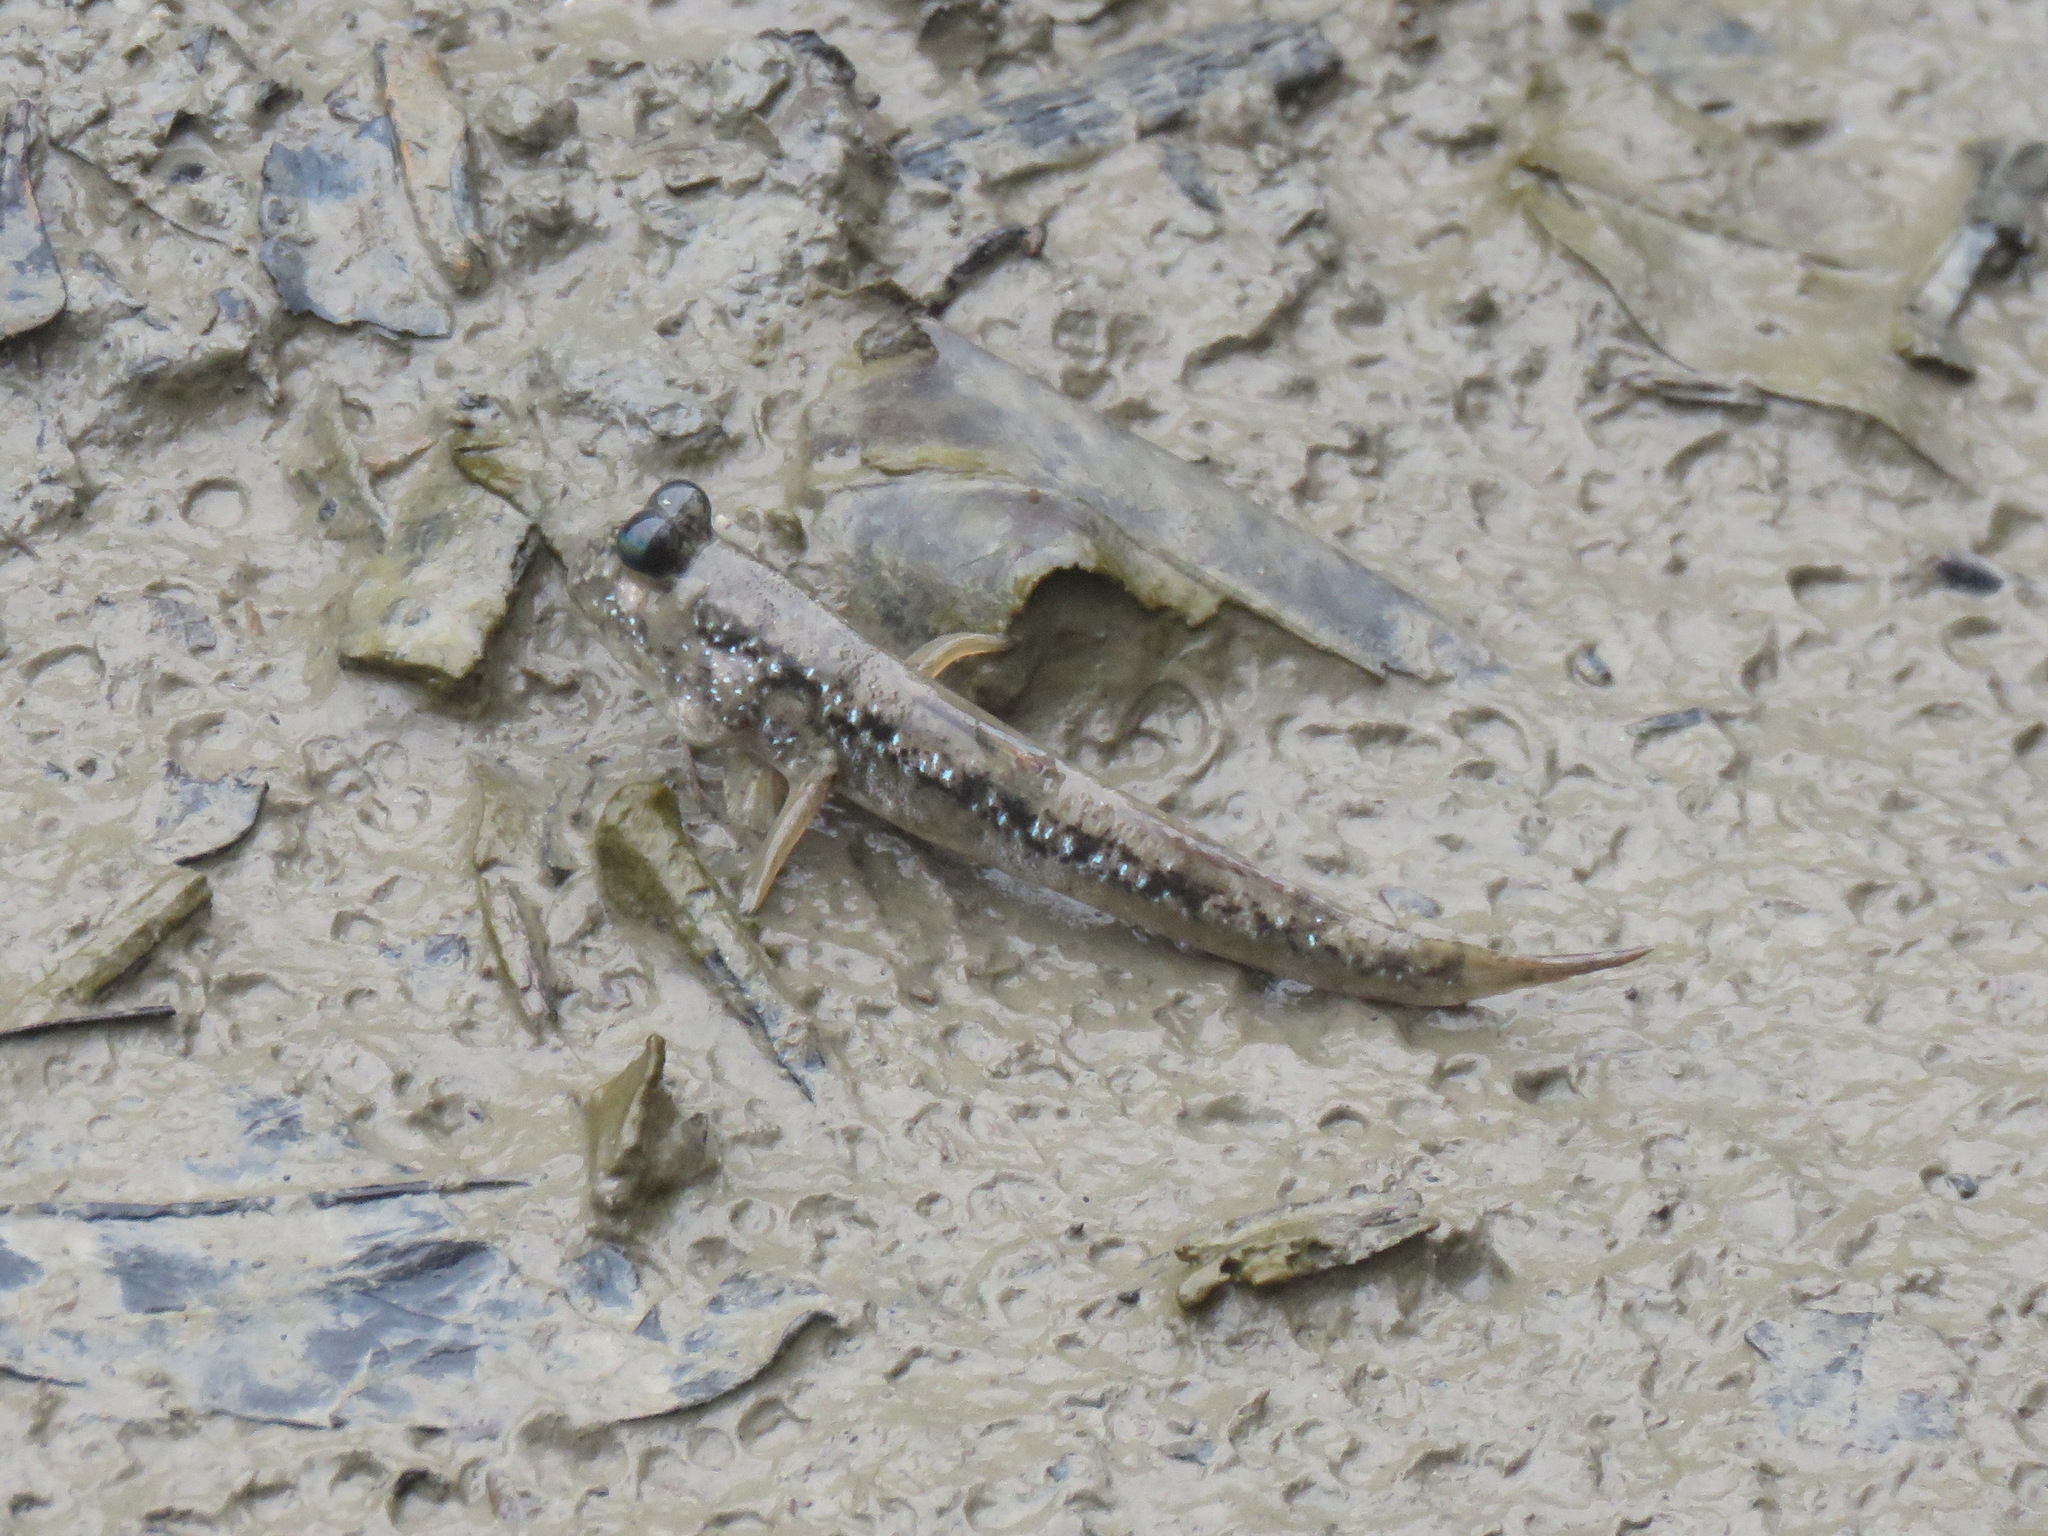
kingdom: Animalia
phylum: Chordata
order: Perciformes
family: Gobiidae
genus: Periophthalmus
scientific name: Periophthalmus magnuspinnatus
